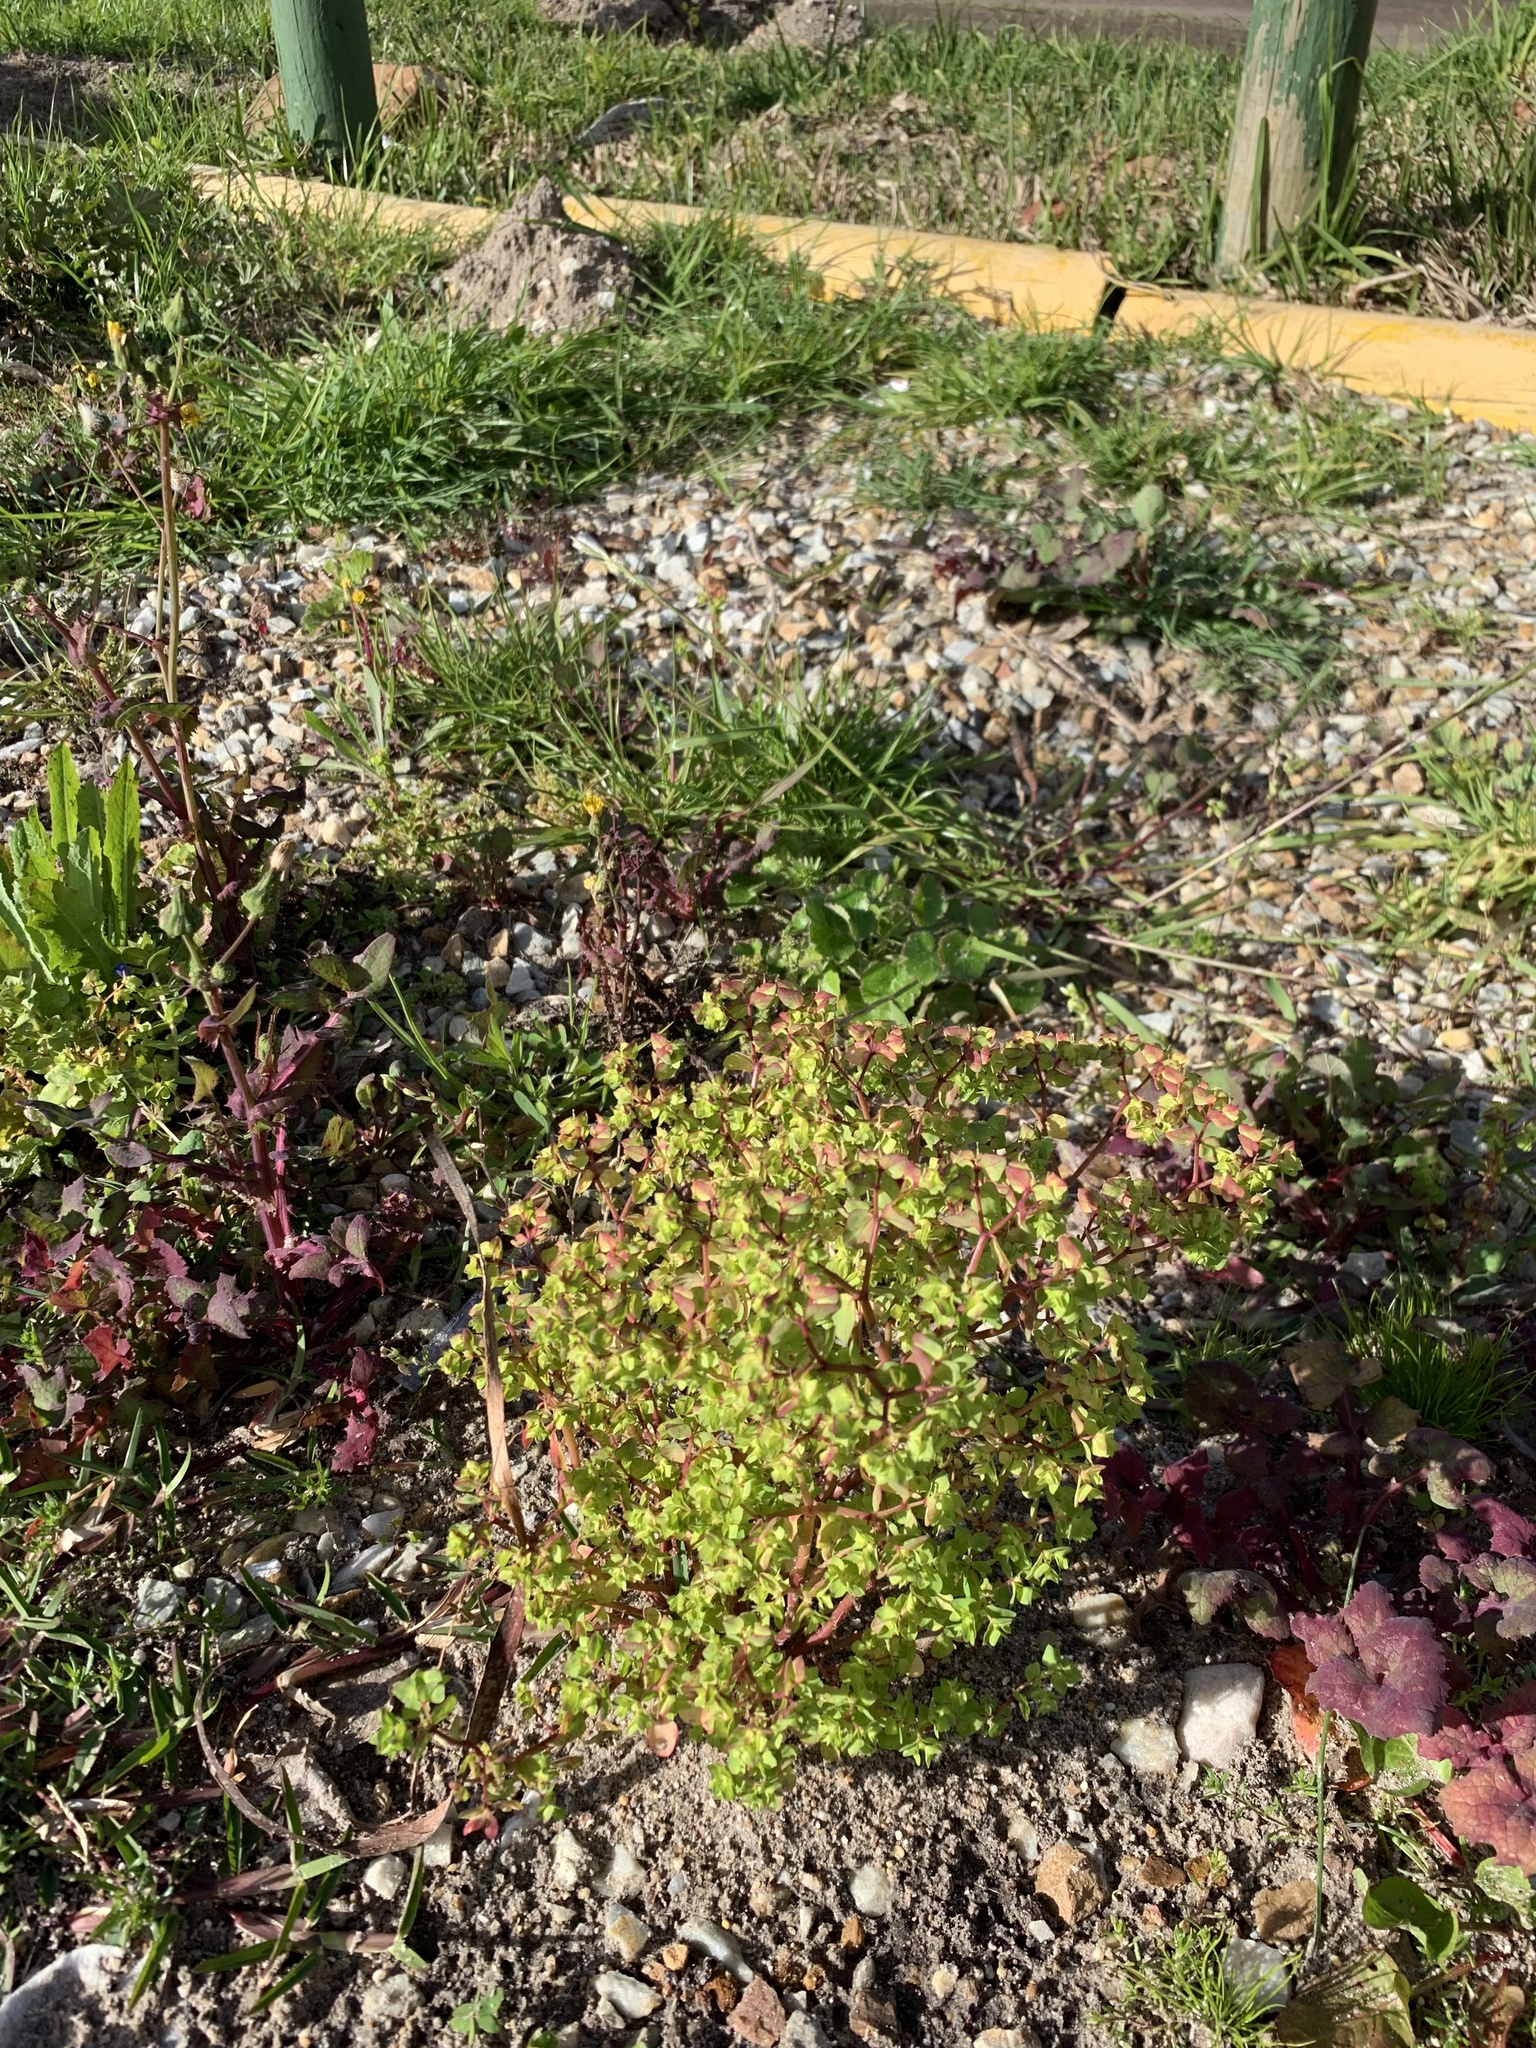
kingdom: Plantae
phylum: Tracheophyta
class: Magnoliopsida
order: Malpighiales
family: Euphorbiaceae
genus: Euphorbia
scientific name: Euphorbia peplus
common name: Petty spurge
